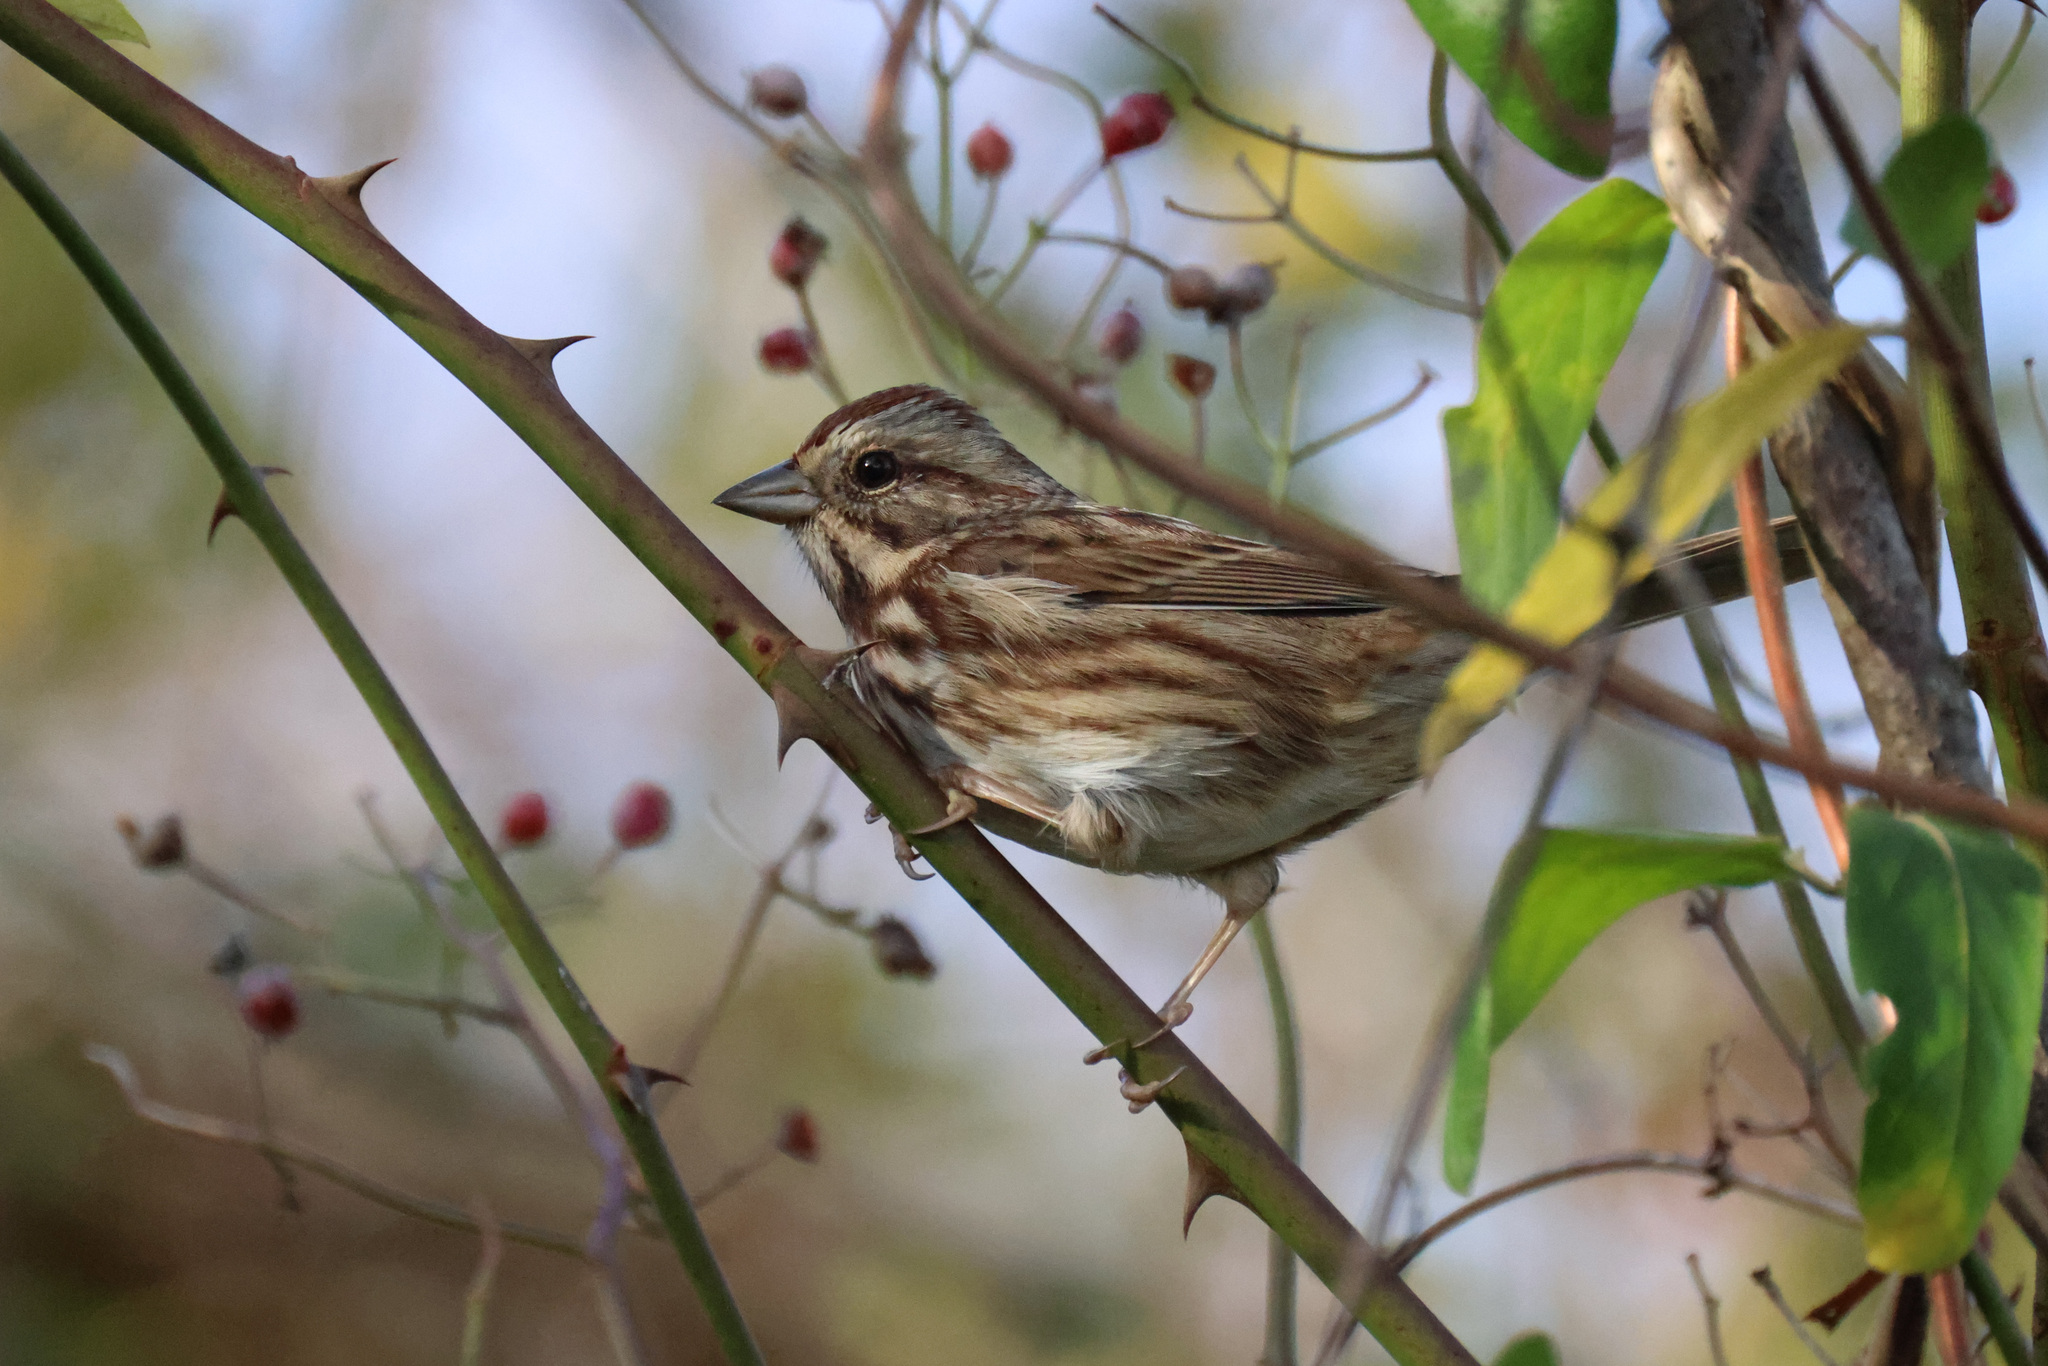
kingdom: Animalia
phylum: Chordata
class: Aves
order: Passeriformes
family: Passerellidae
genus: Melospiza
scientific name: Melospiza melodia
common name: Song sparrow
